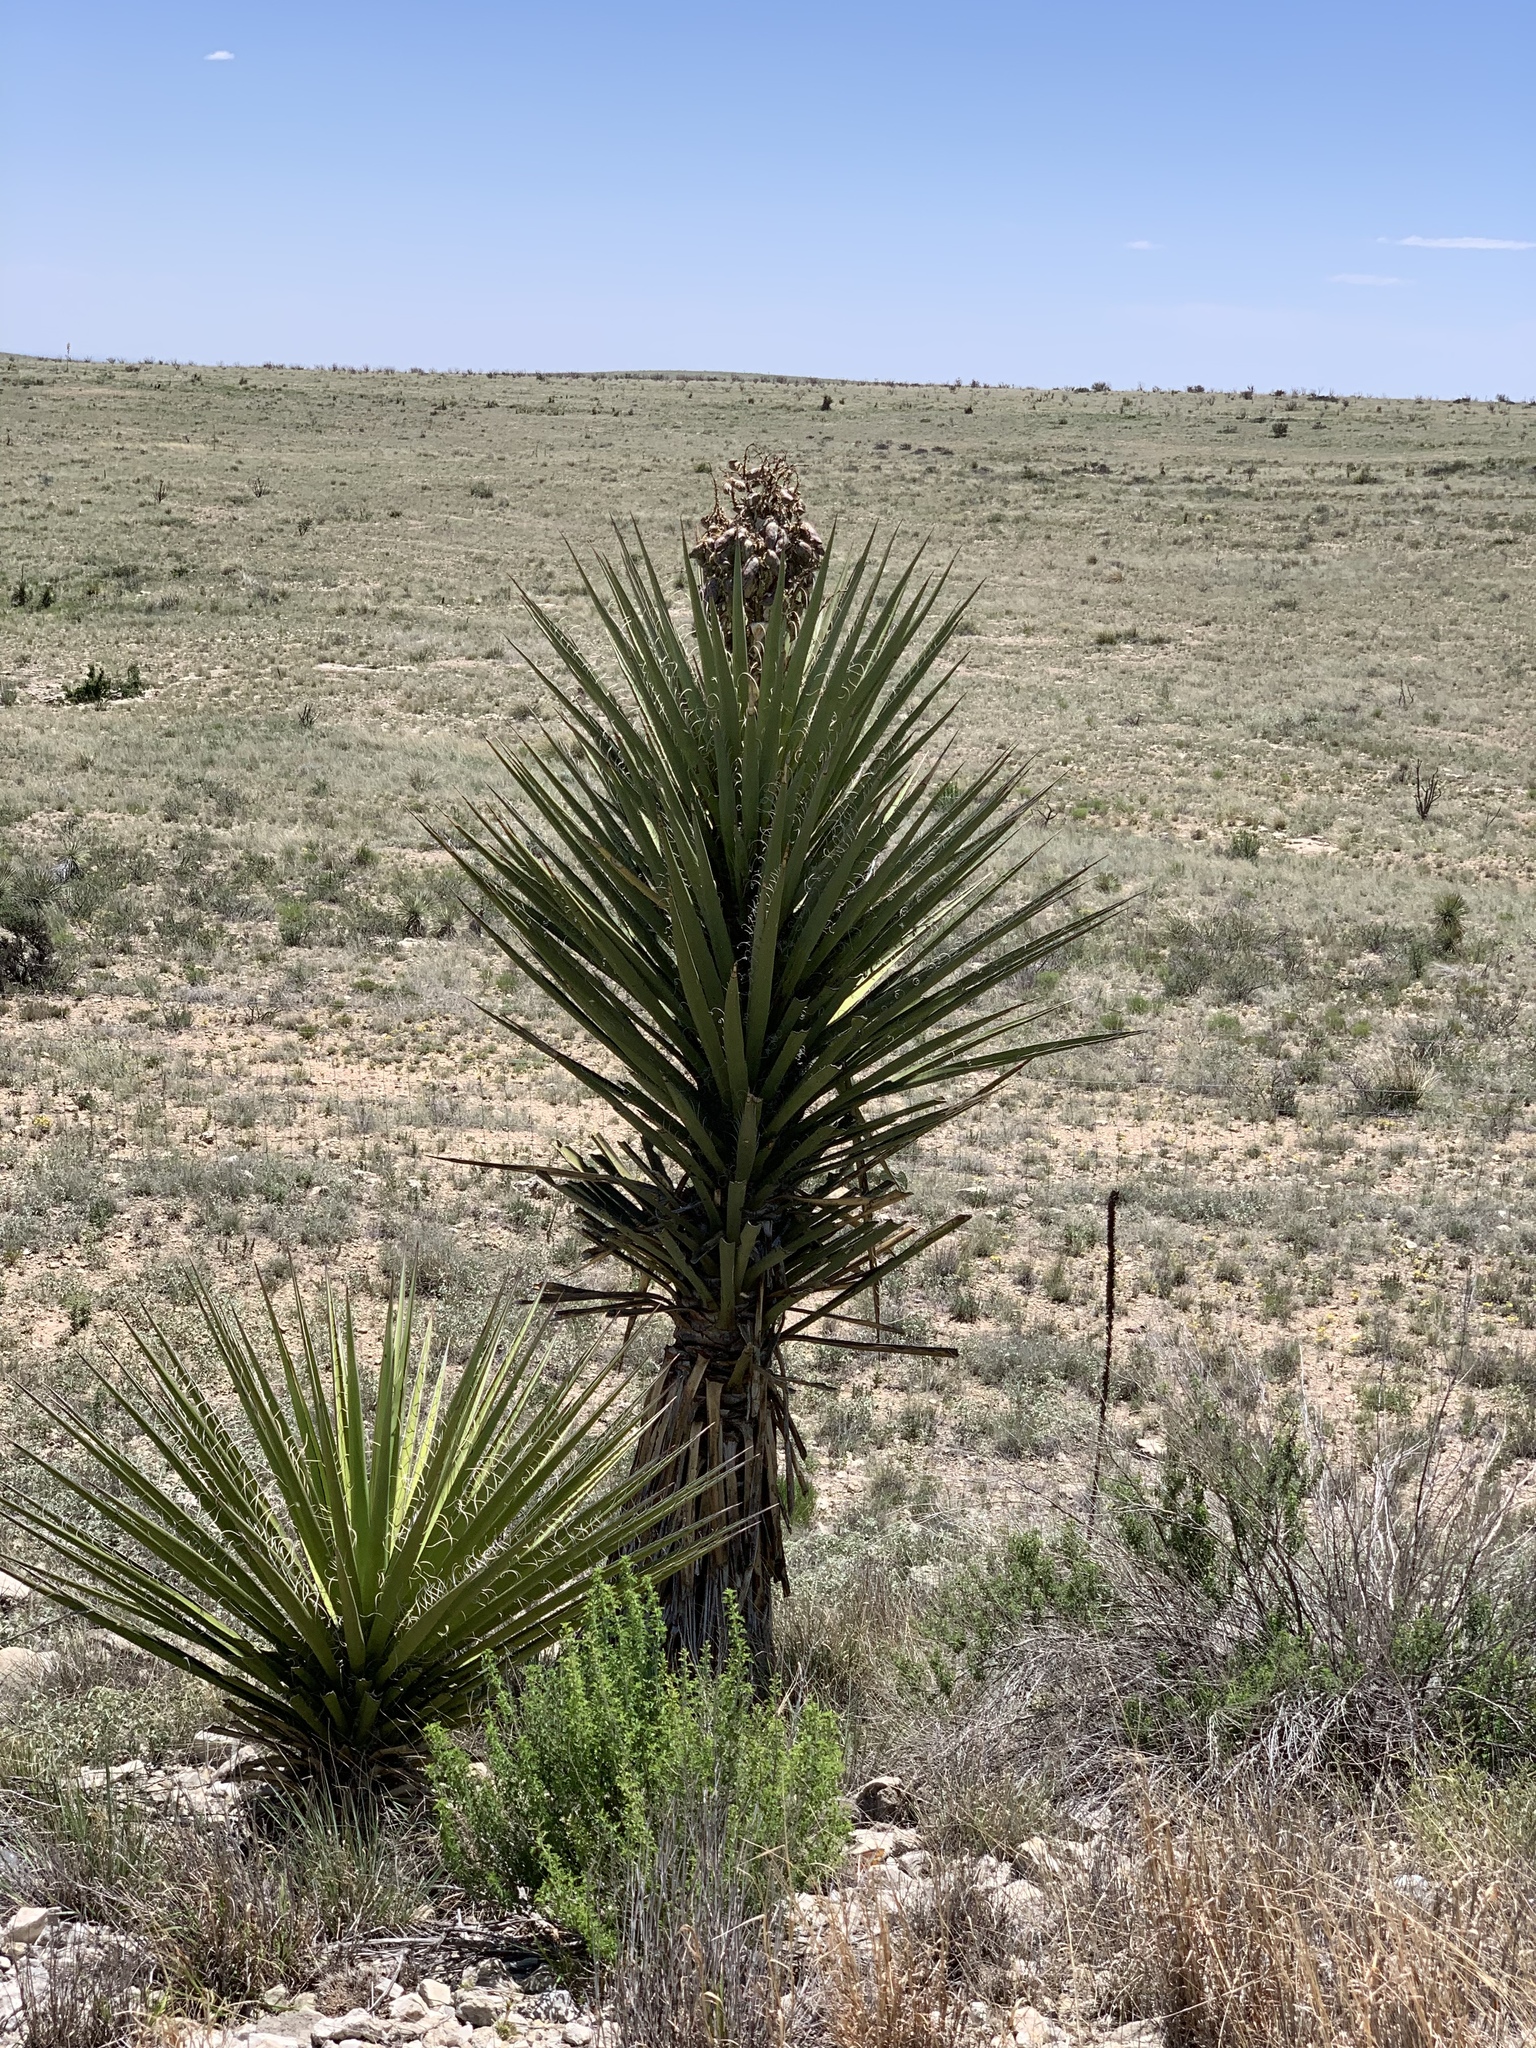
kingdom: Plantae
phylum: Tracheophyta
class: Liliopsida
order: Asparagales
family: Asparagaceae
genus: Yucca
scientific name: Yucca treculiana
